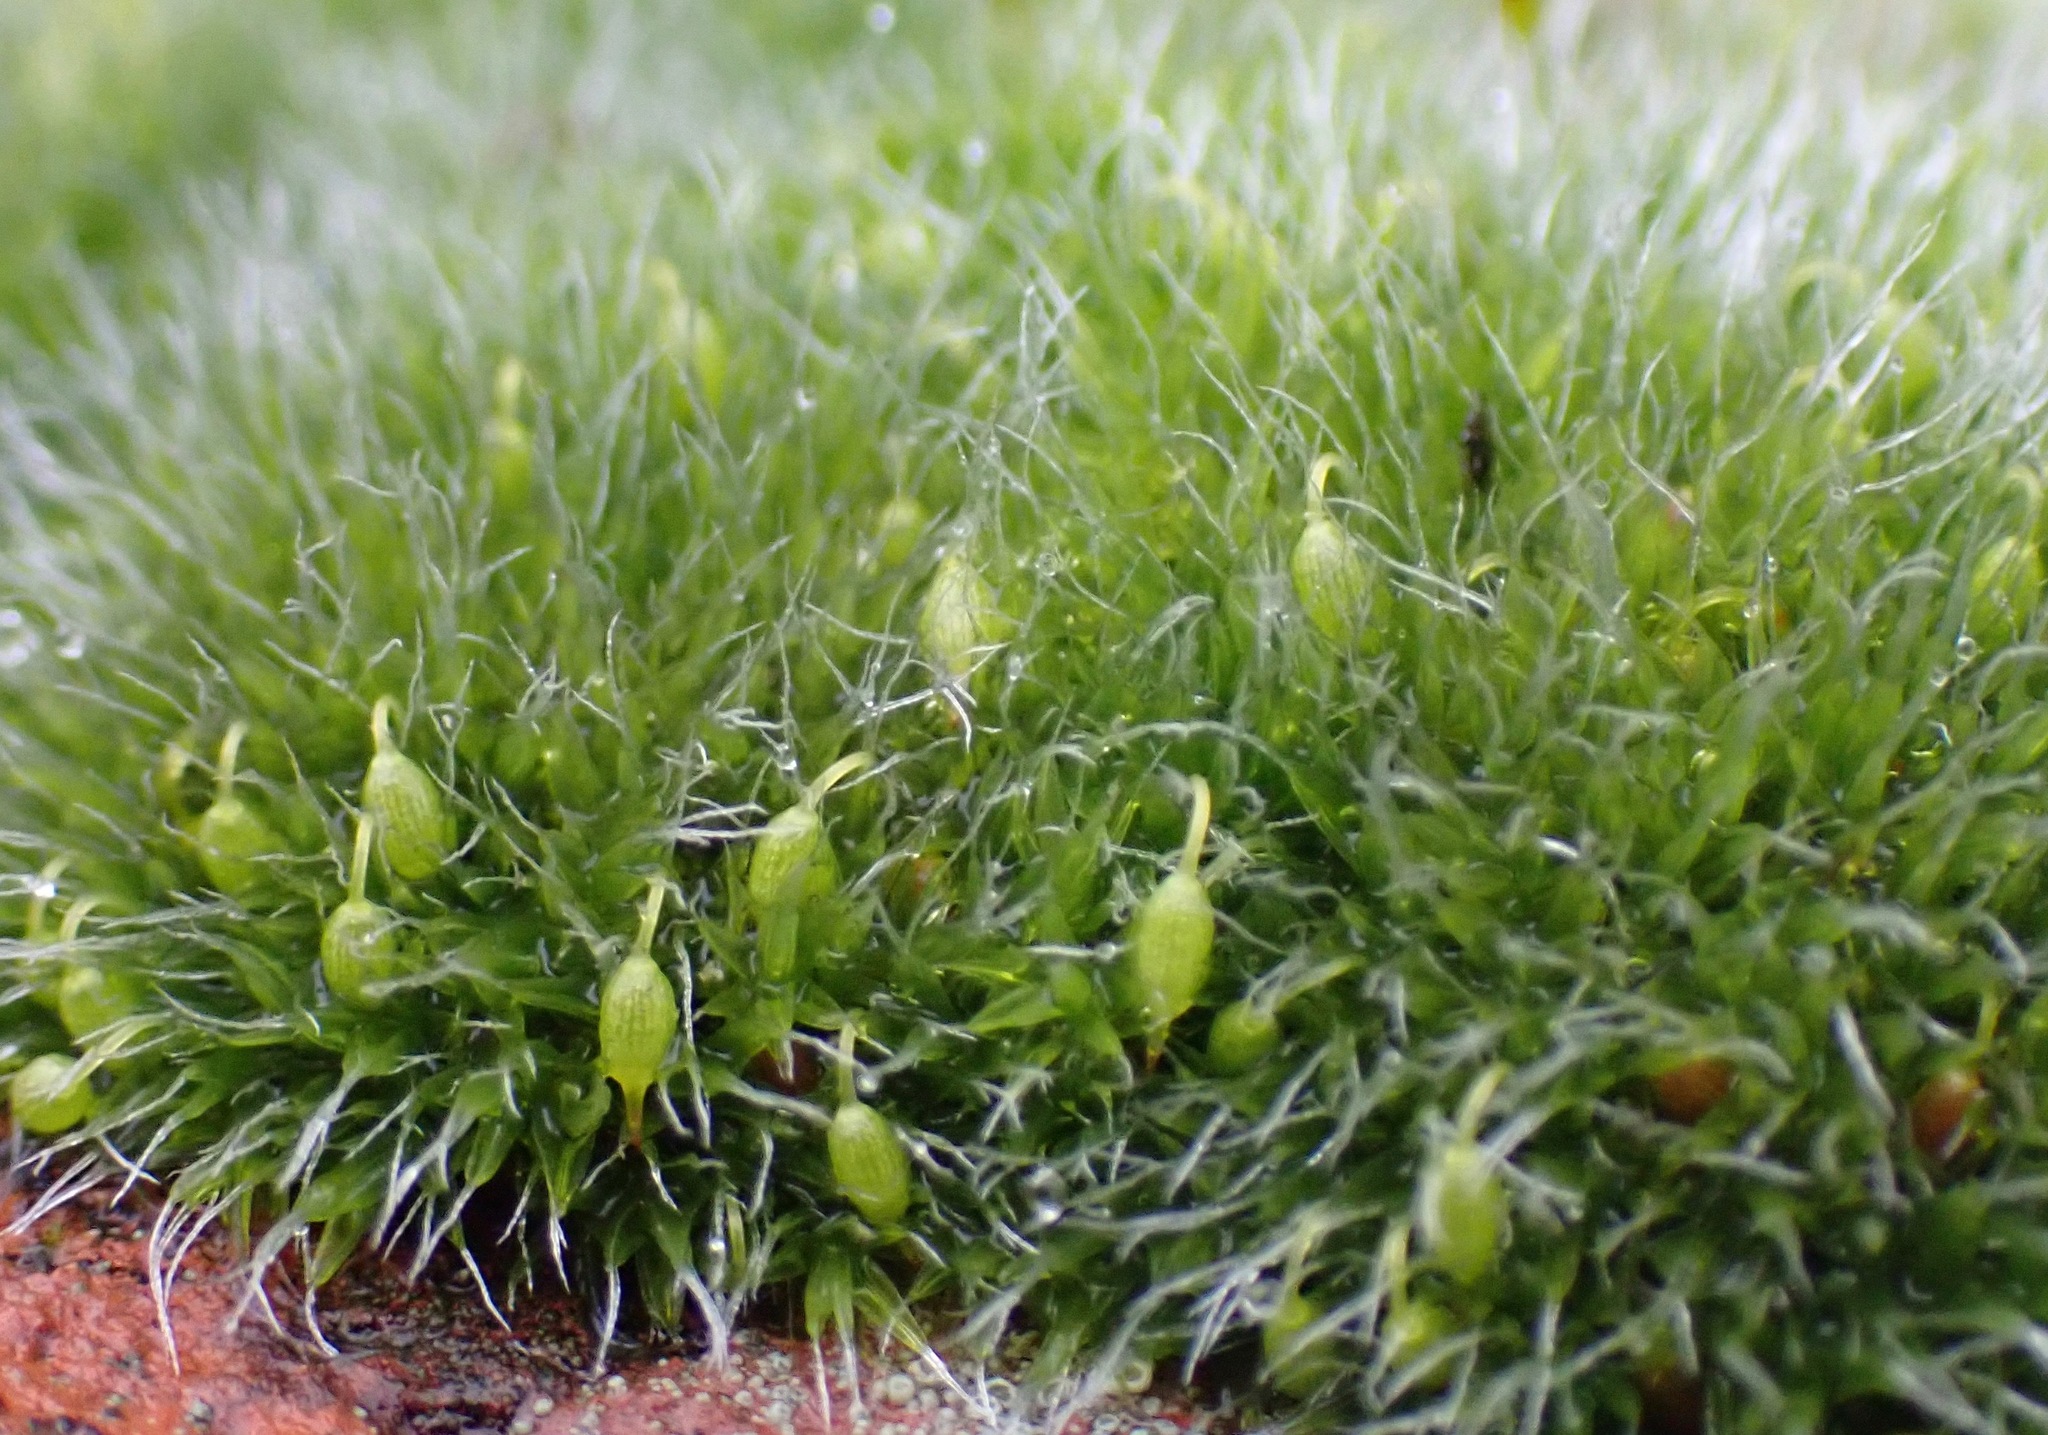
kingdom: Plantae
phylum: Bryophyta
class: Bryopsida
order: Grimmiales
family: Grimmiaceae
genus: Grimmia
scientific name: Grimmia pulvinata
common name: Grey-cushioned grimmia
